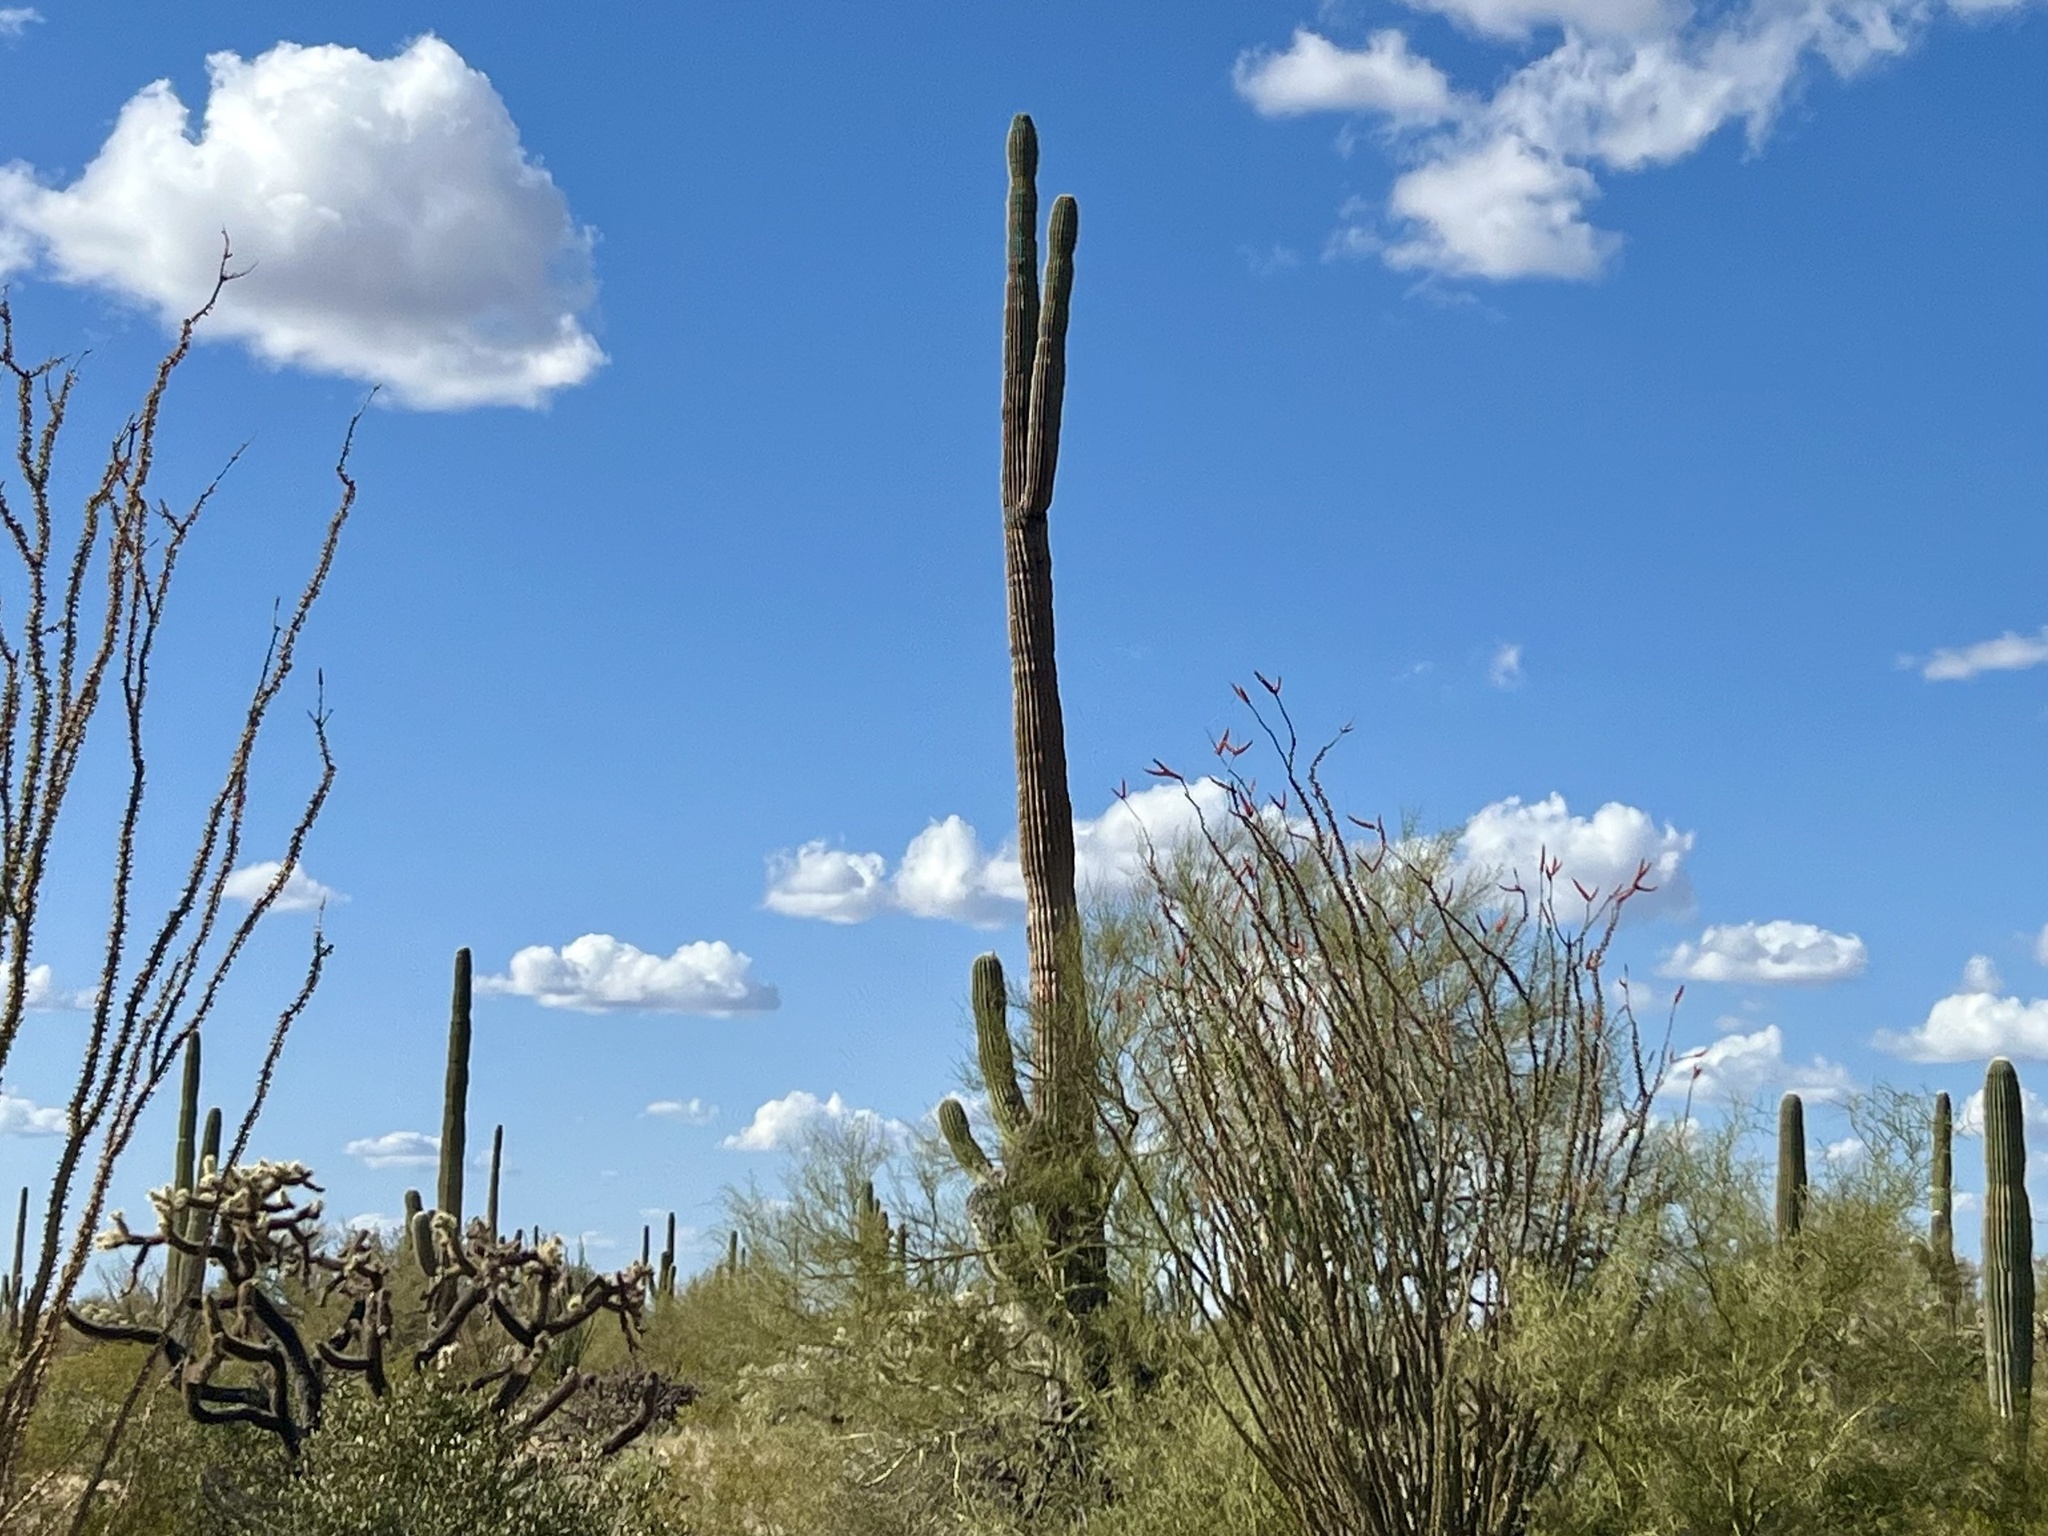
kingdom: Plantae
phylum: Tracheophyta
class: Magnoliopsida
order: Caryophyllales
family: Cactaceae
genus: Carnegiea
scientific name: Carnegiea gigantea
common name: Saguaro
